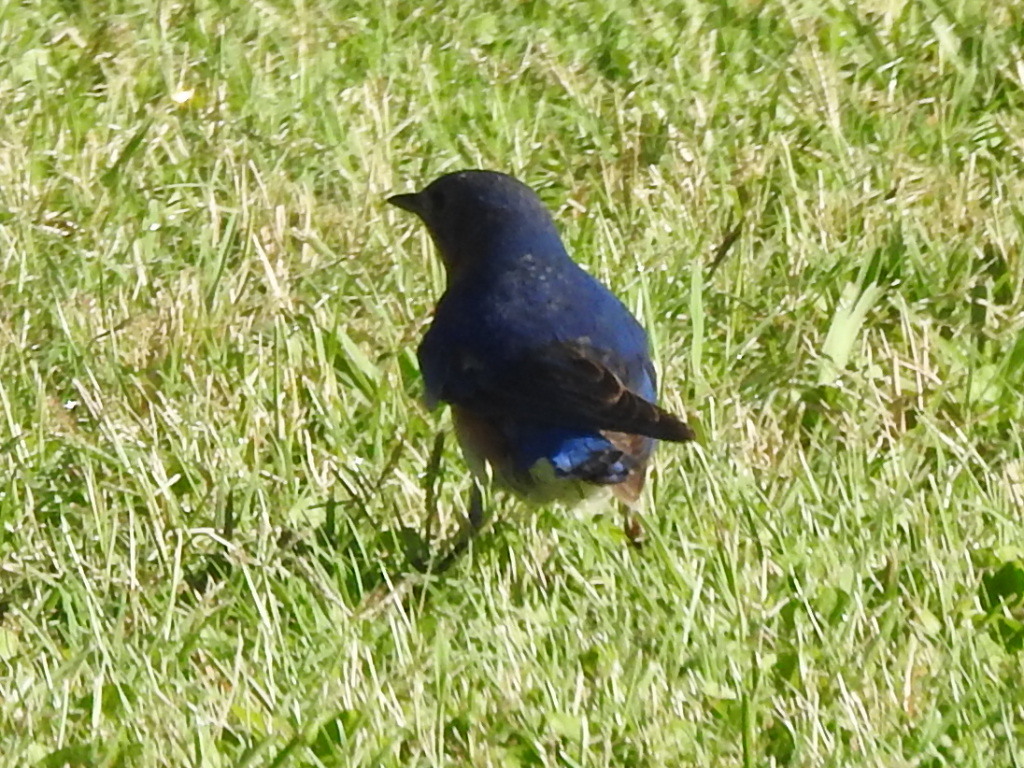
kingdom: Animalia
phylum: Chordata
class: Aves
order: Passeriformes
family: Turdidae
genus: Sialia
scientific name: Sialia sialis
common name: Eastern bluebird
